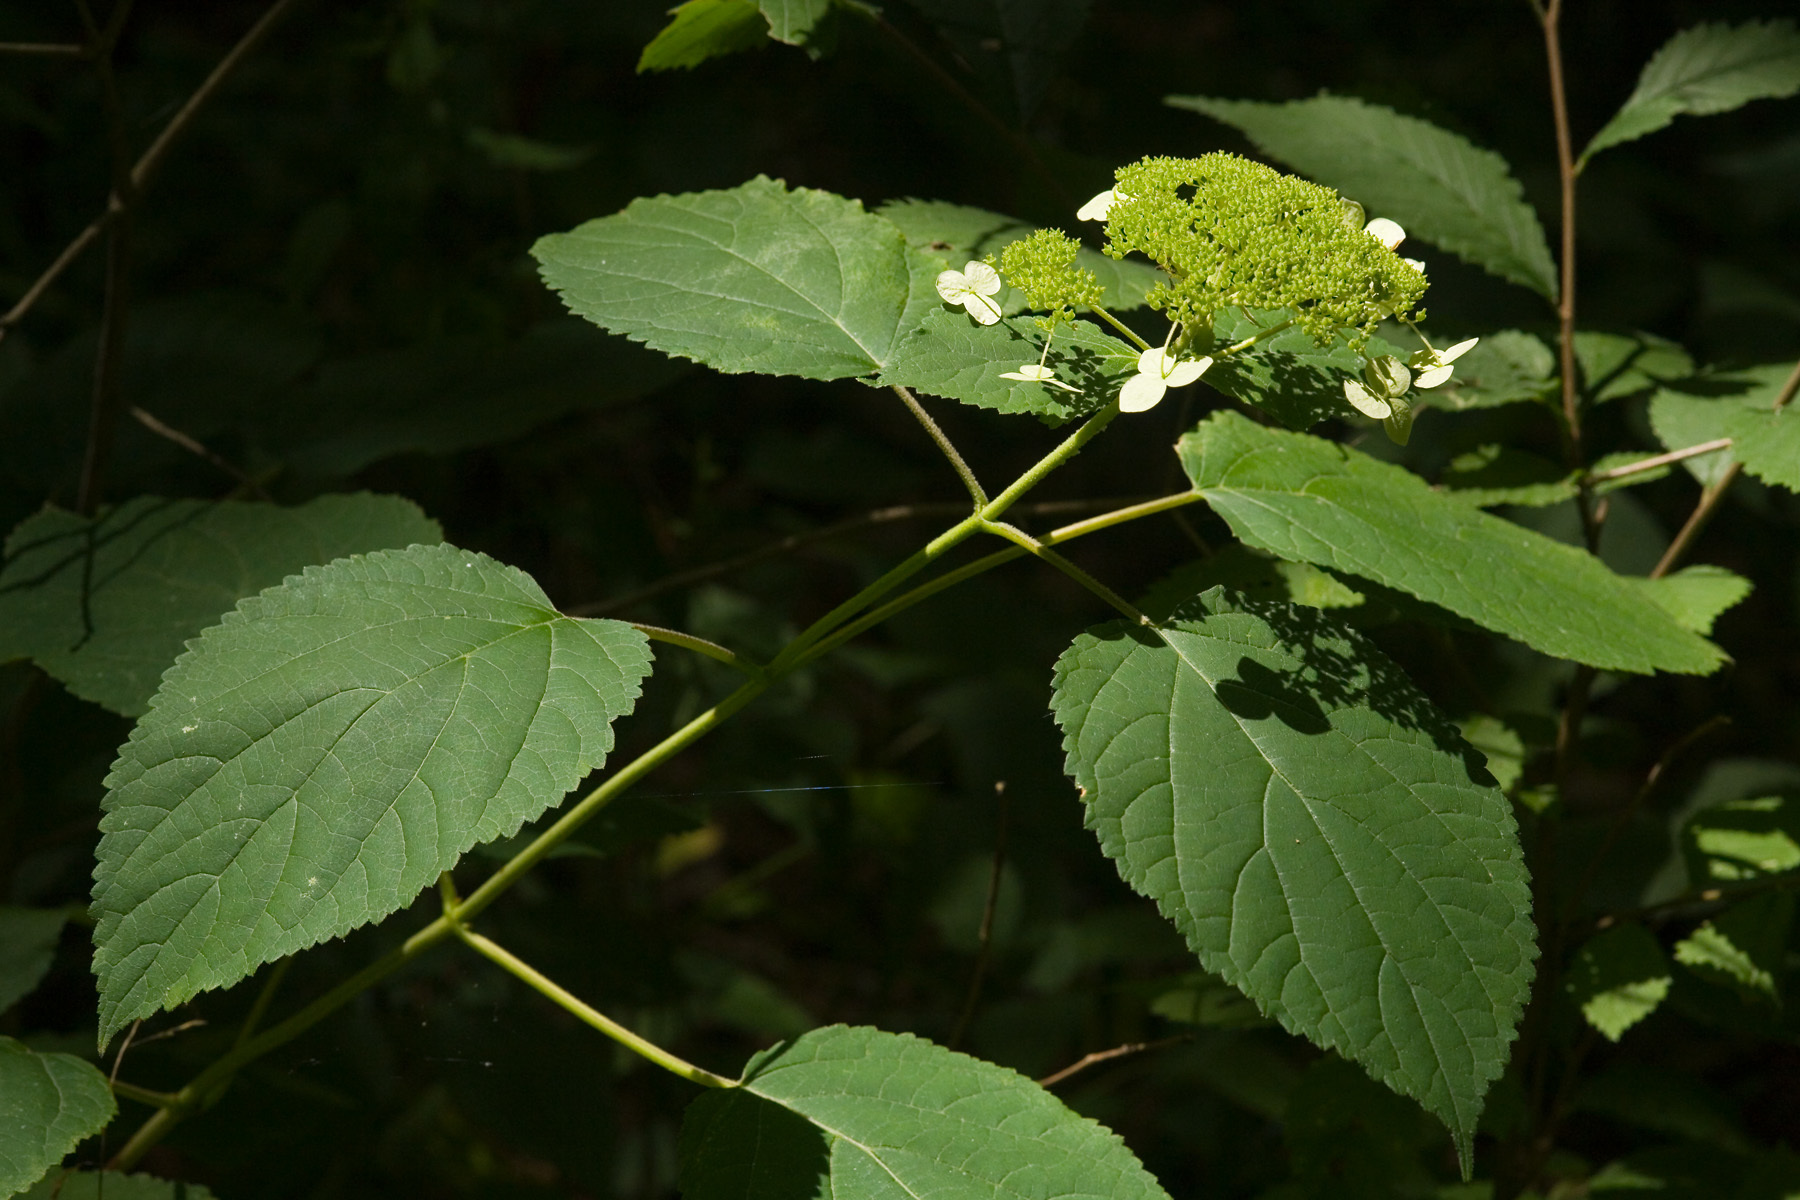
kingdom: Plantae
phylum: Tracheophyta
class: Magnoliopsida
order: Cornales
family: Hydrangeaceae
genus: Hydrangea
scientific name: Hydrangea arborescens
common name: Sevenbark
